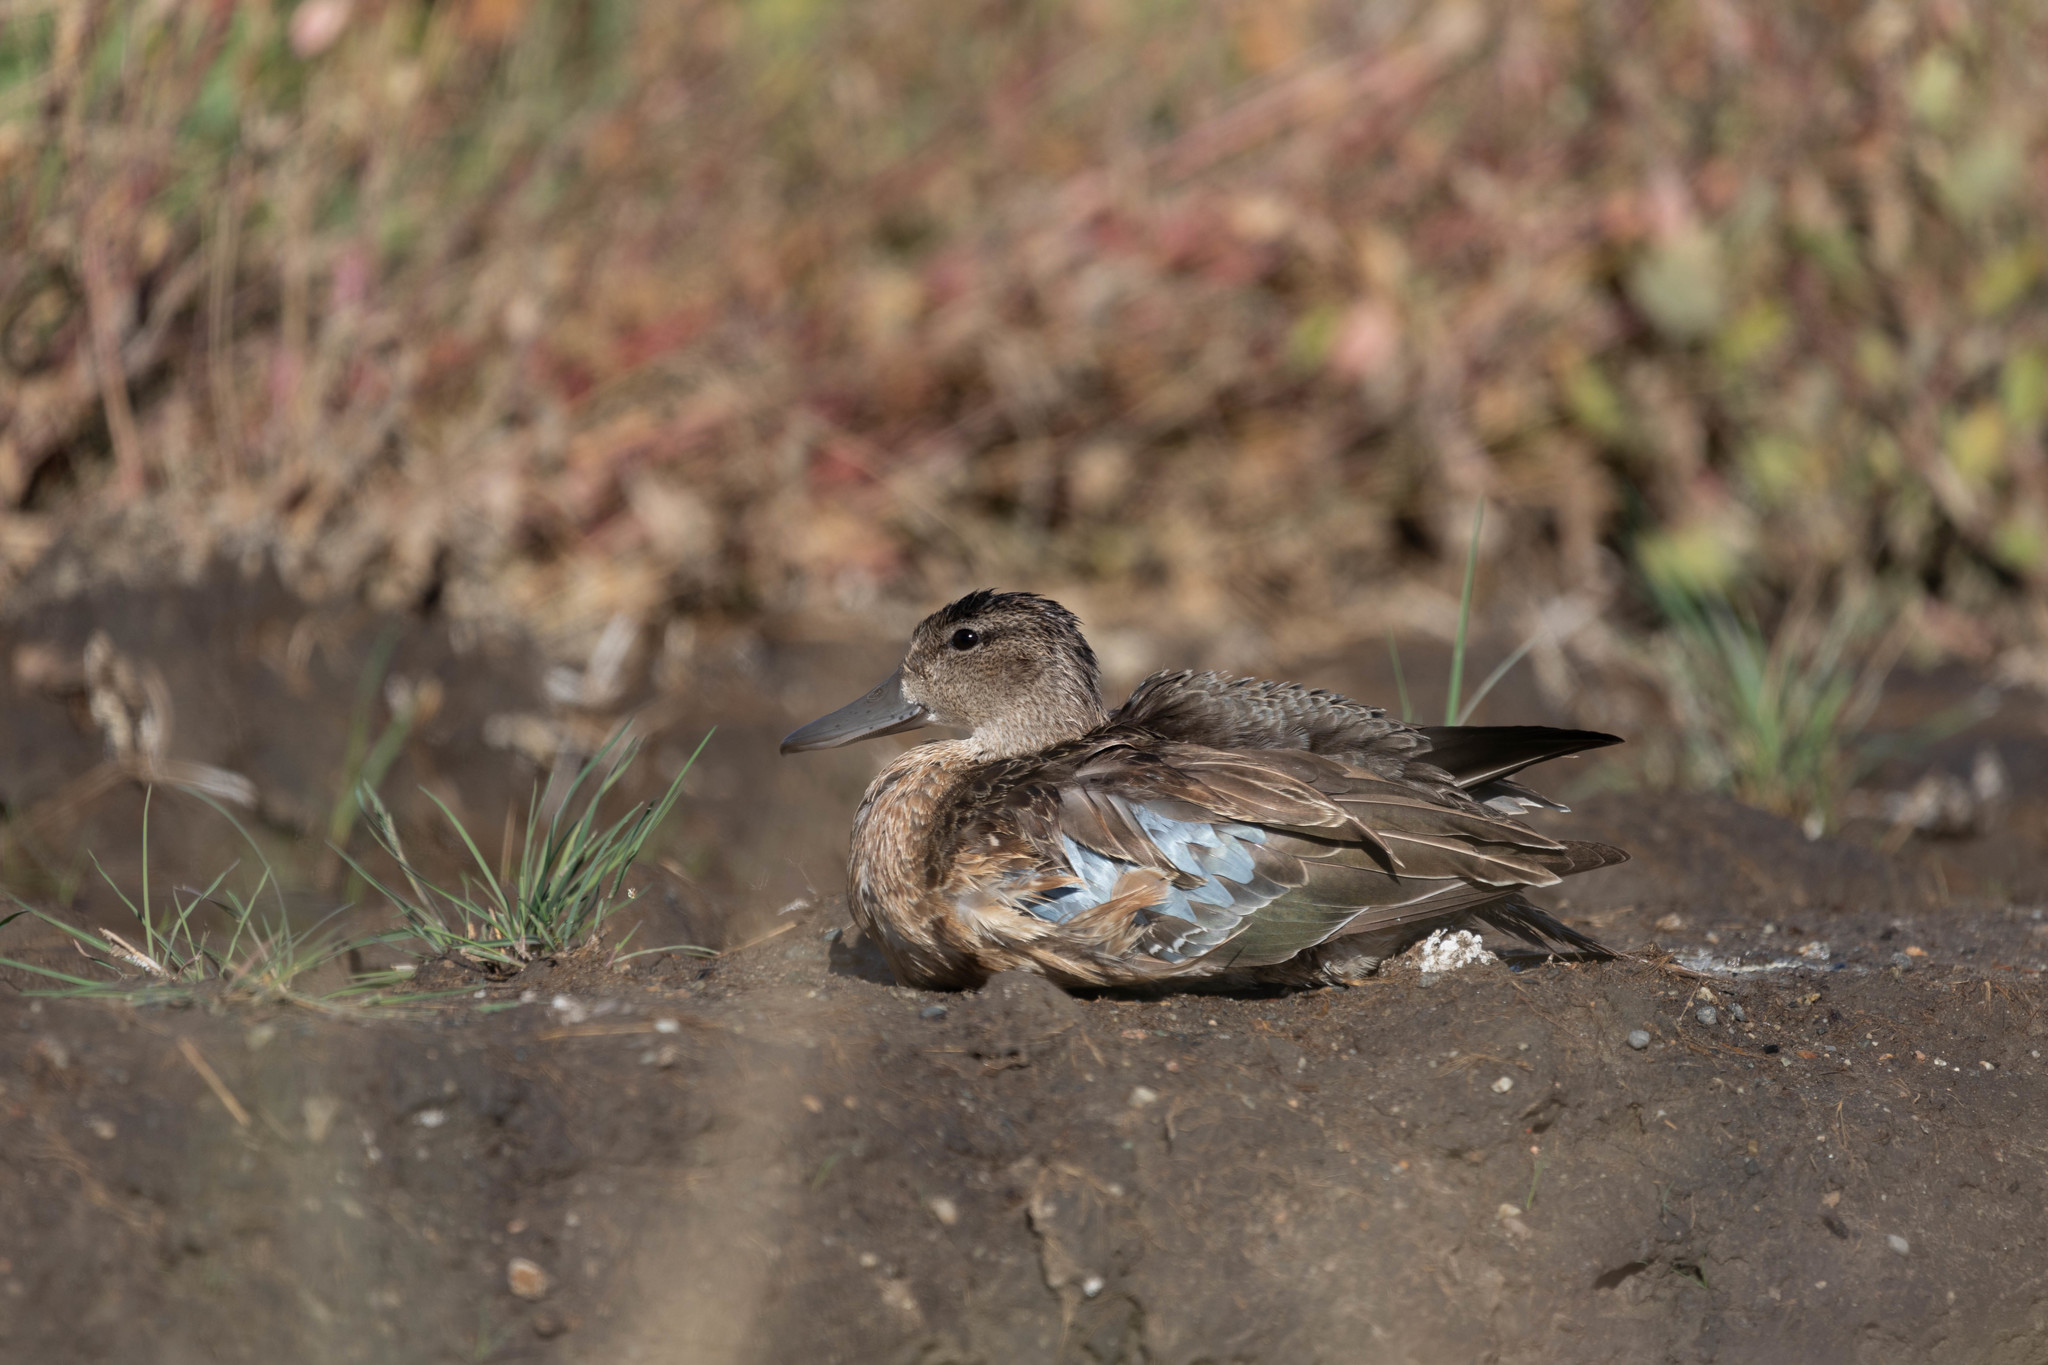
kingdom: Animalia
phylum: Chordata
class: Aves
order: Anseriformes
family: Anatidae
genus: Spatula
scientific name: Spatula discors
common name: Blue-winged teal
